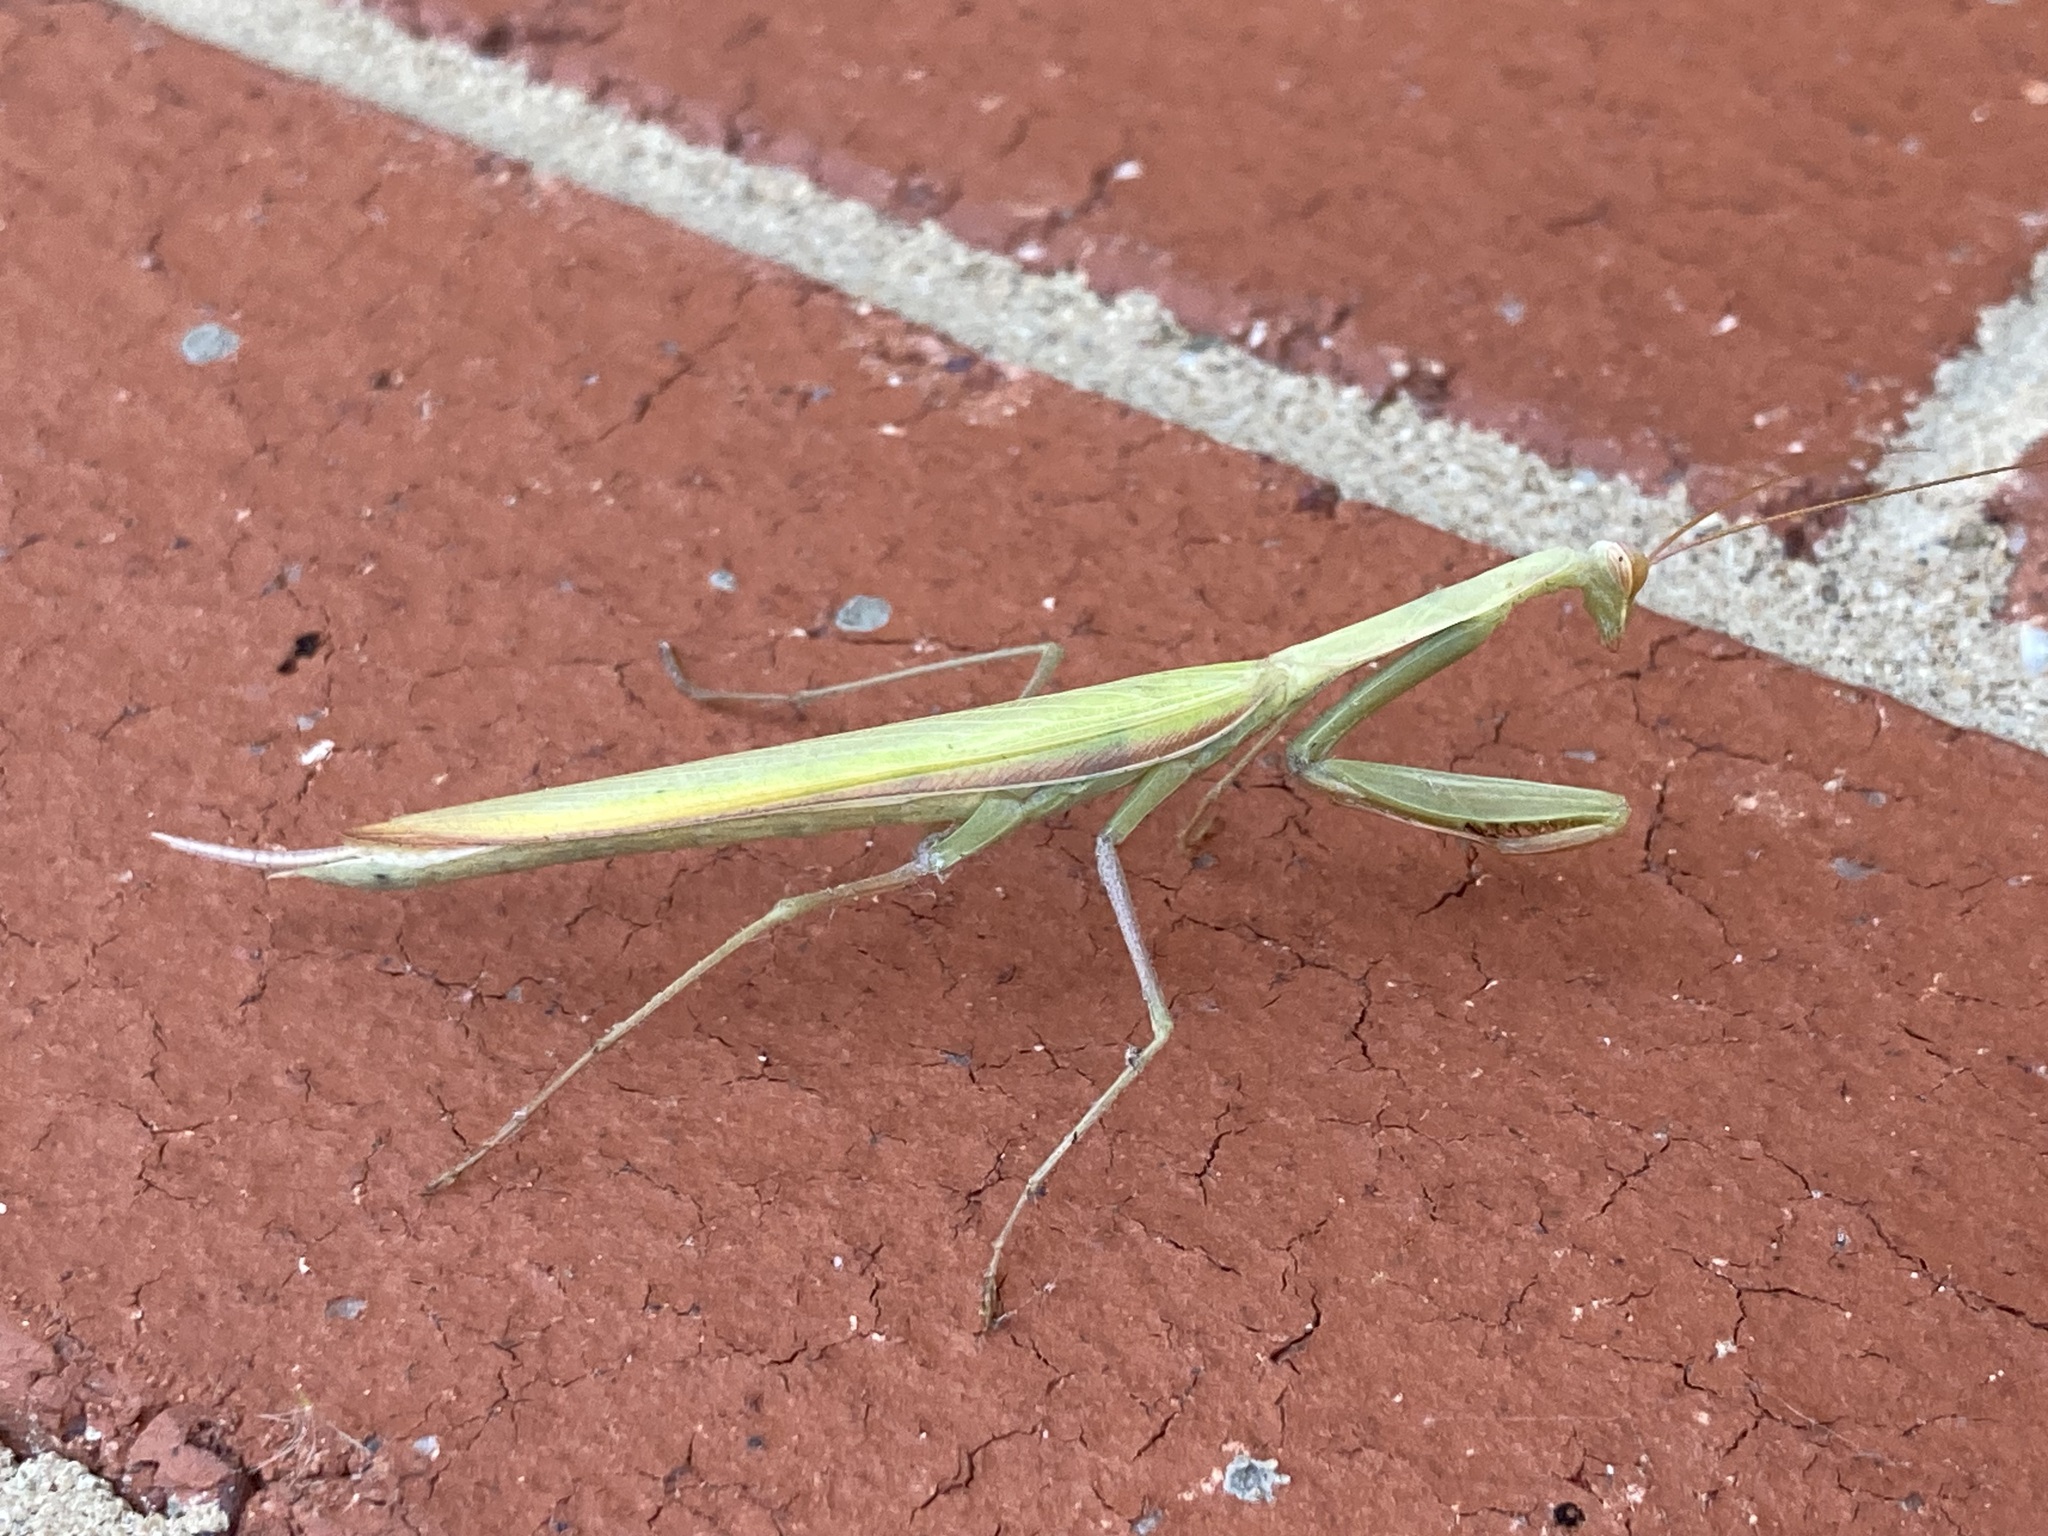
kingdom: Animalia
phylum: Arthropoda
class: Insecta
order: Mantodea
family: Mantidae
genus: Mantis
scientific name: Mantis octospilota
